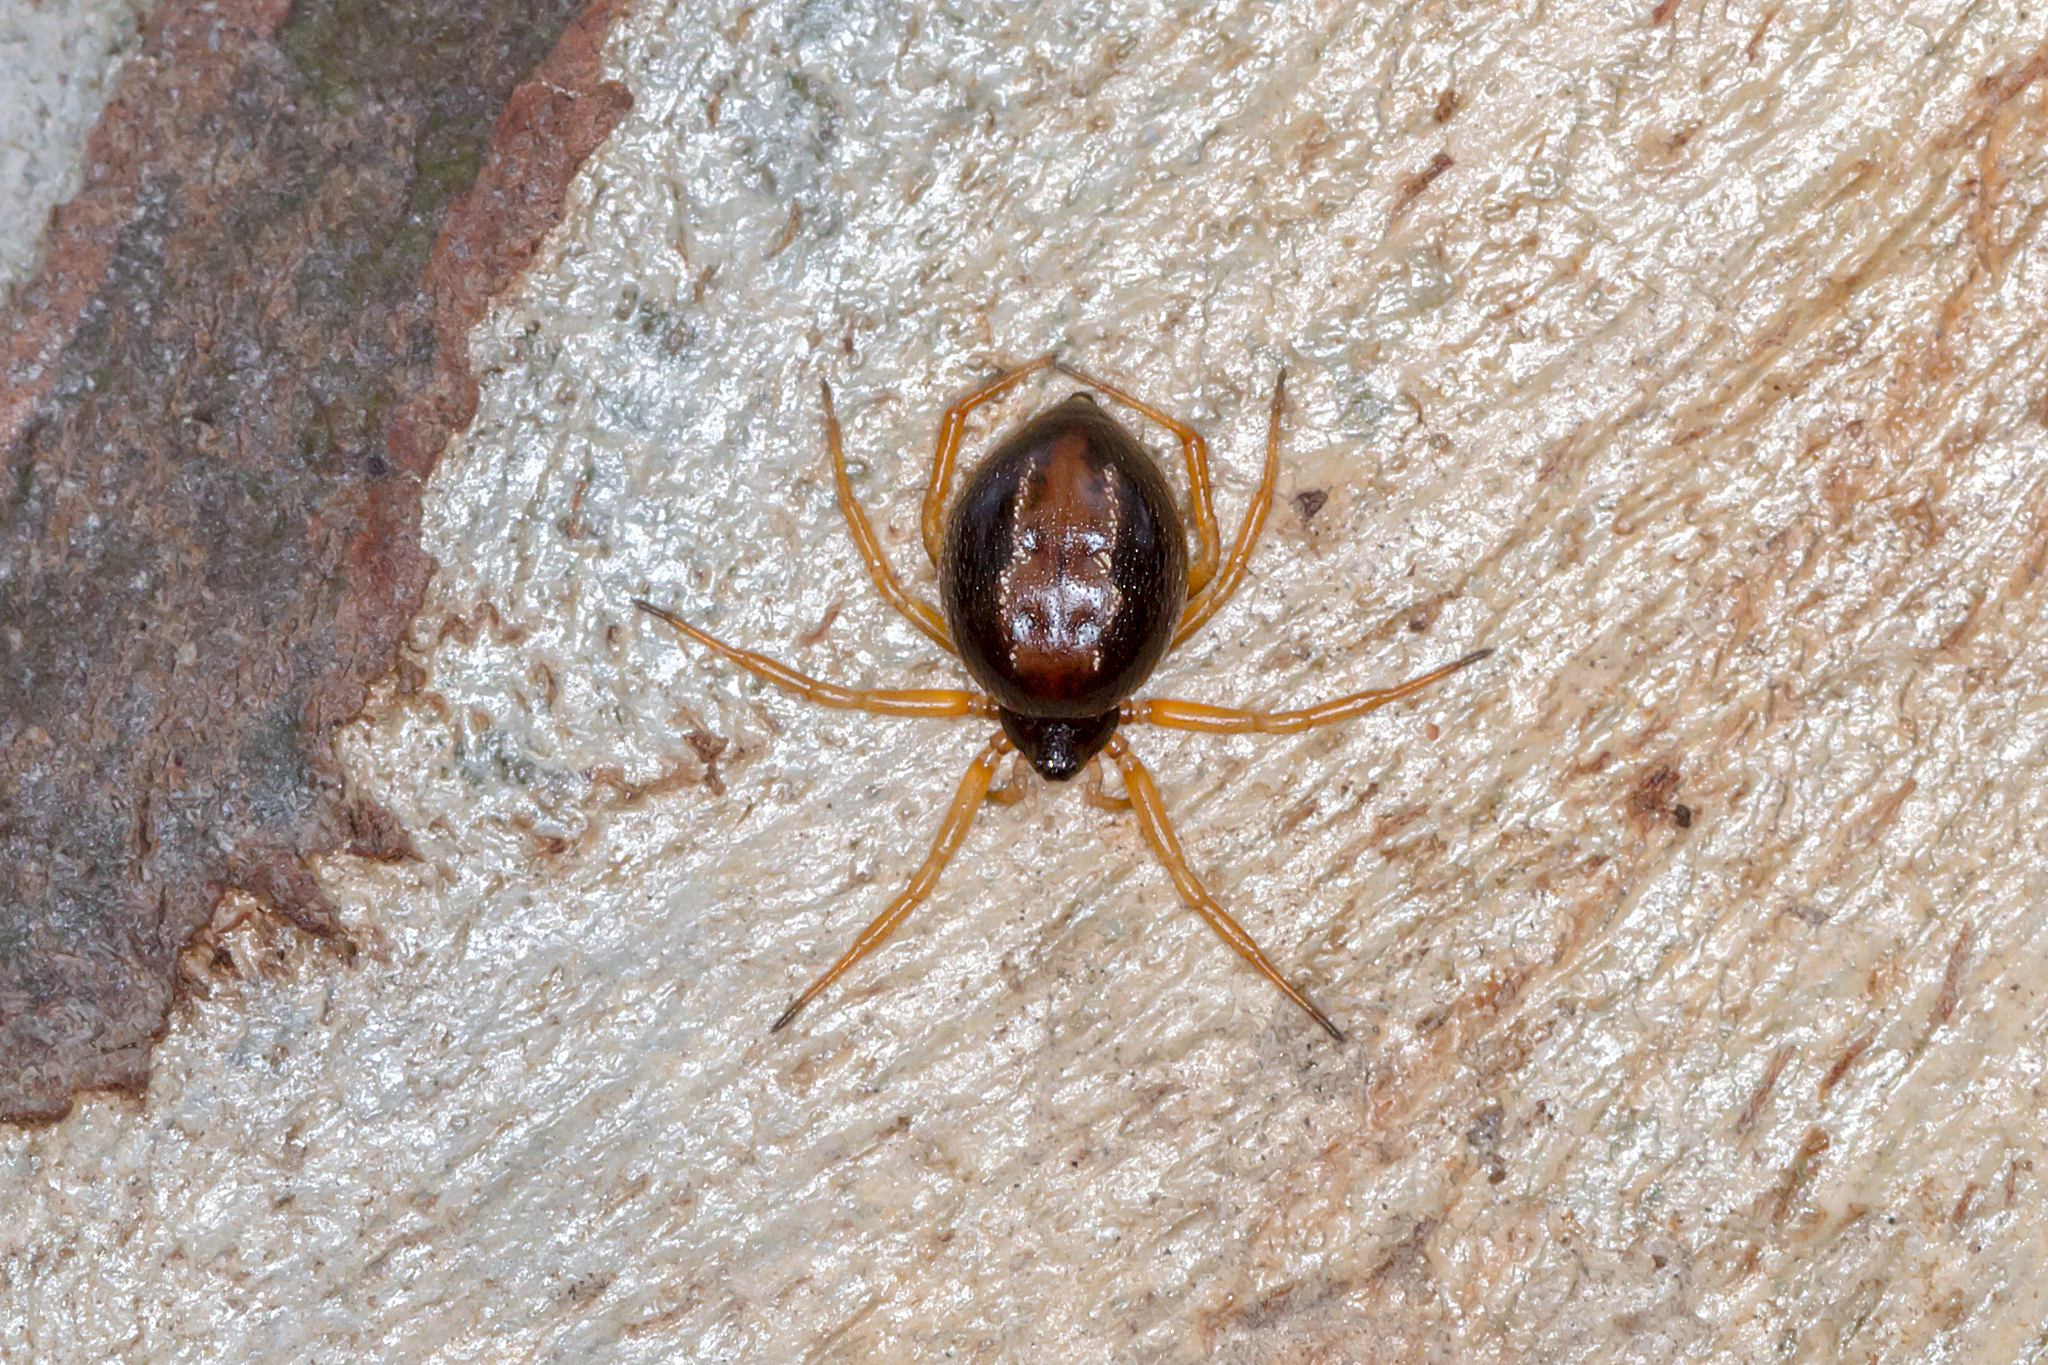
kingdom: Animalia
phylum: Arthropoda
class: Arachnida
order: Araneae
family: Theridiidae
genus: Euryopis
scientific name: Euryopis umbilicata
